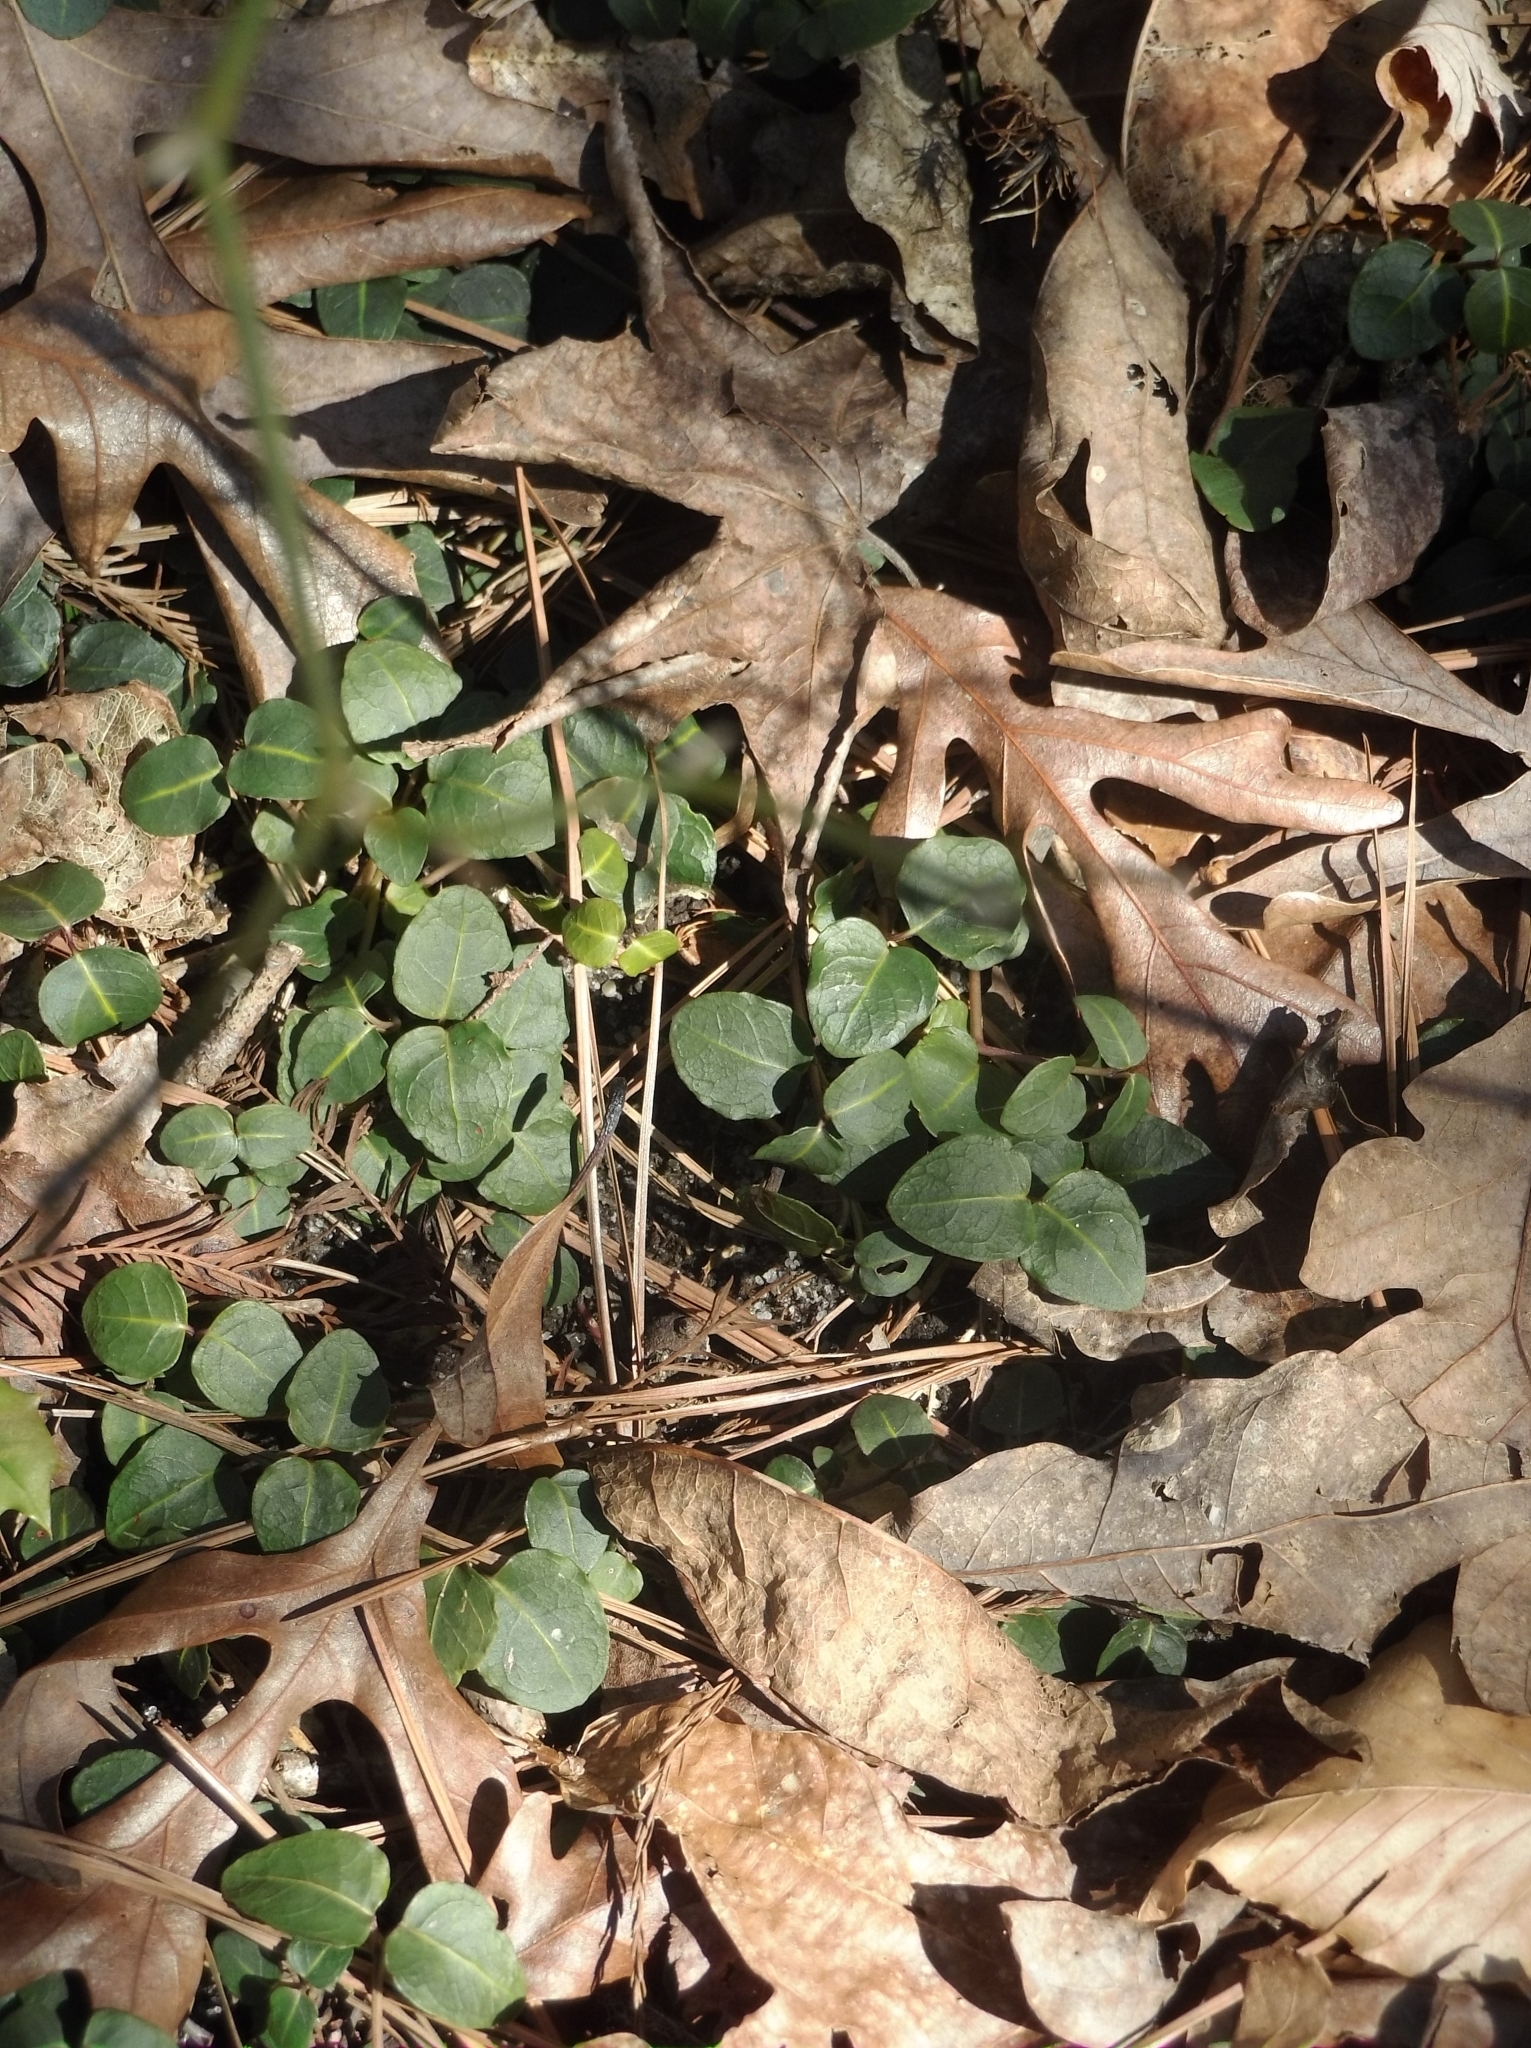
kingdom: Plantae
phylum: Tracheophyta
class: Magnoliopsida
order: Gentianales
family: Rubiaceae
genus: Mitchella
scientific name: Mitchella repens
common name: Partridge-berry
